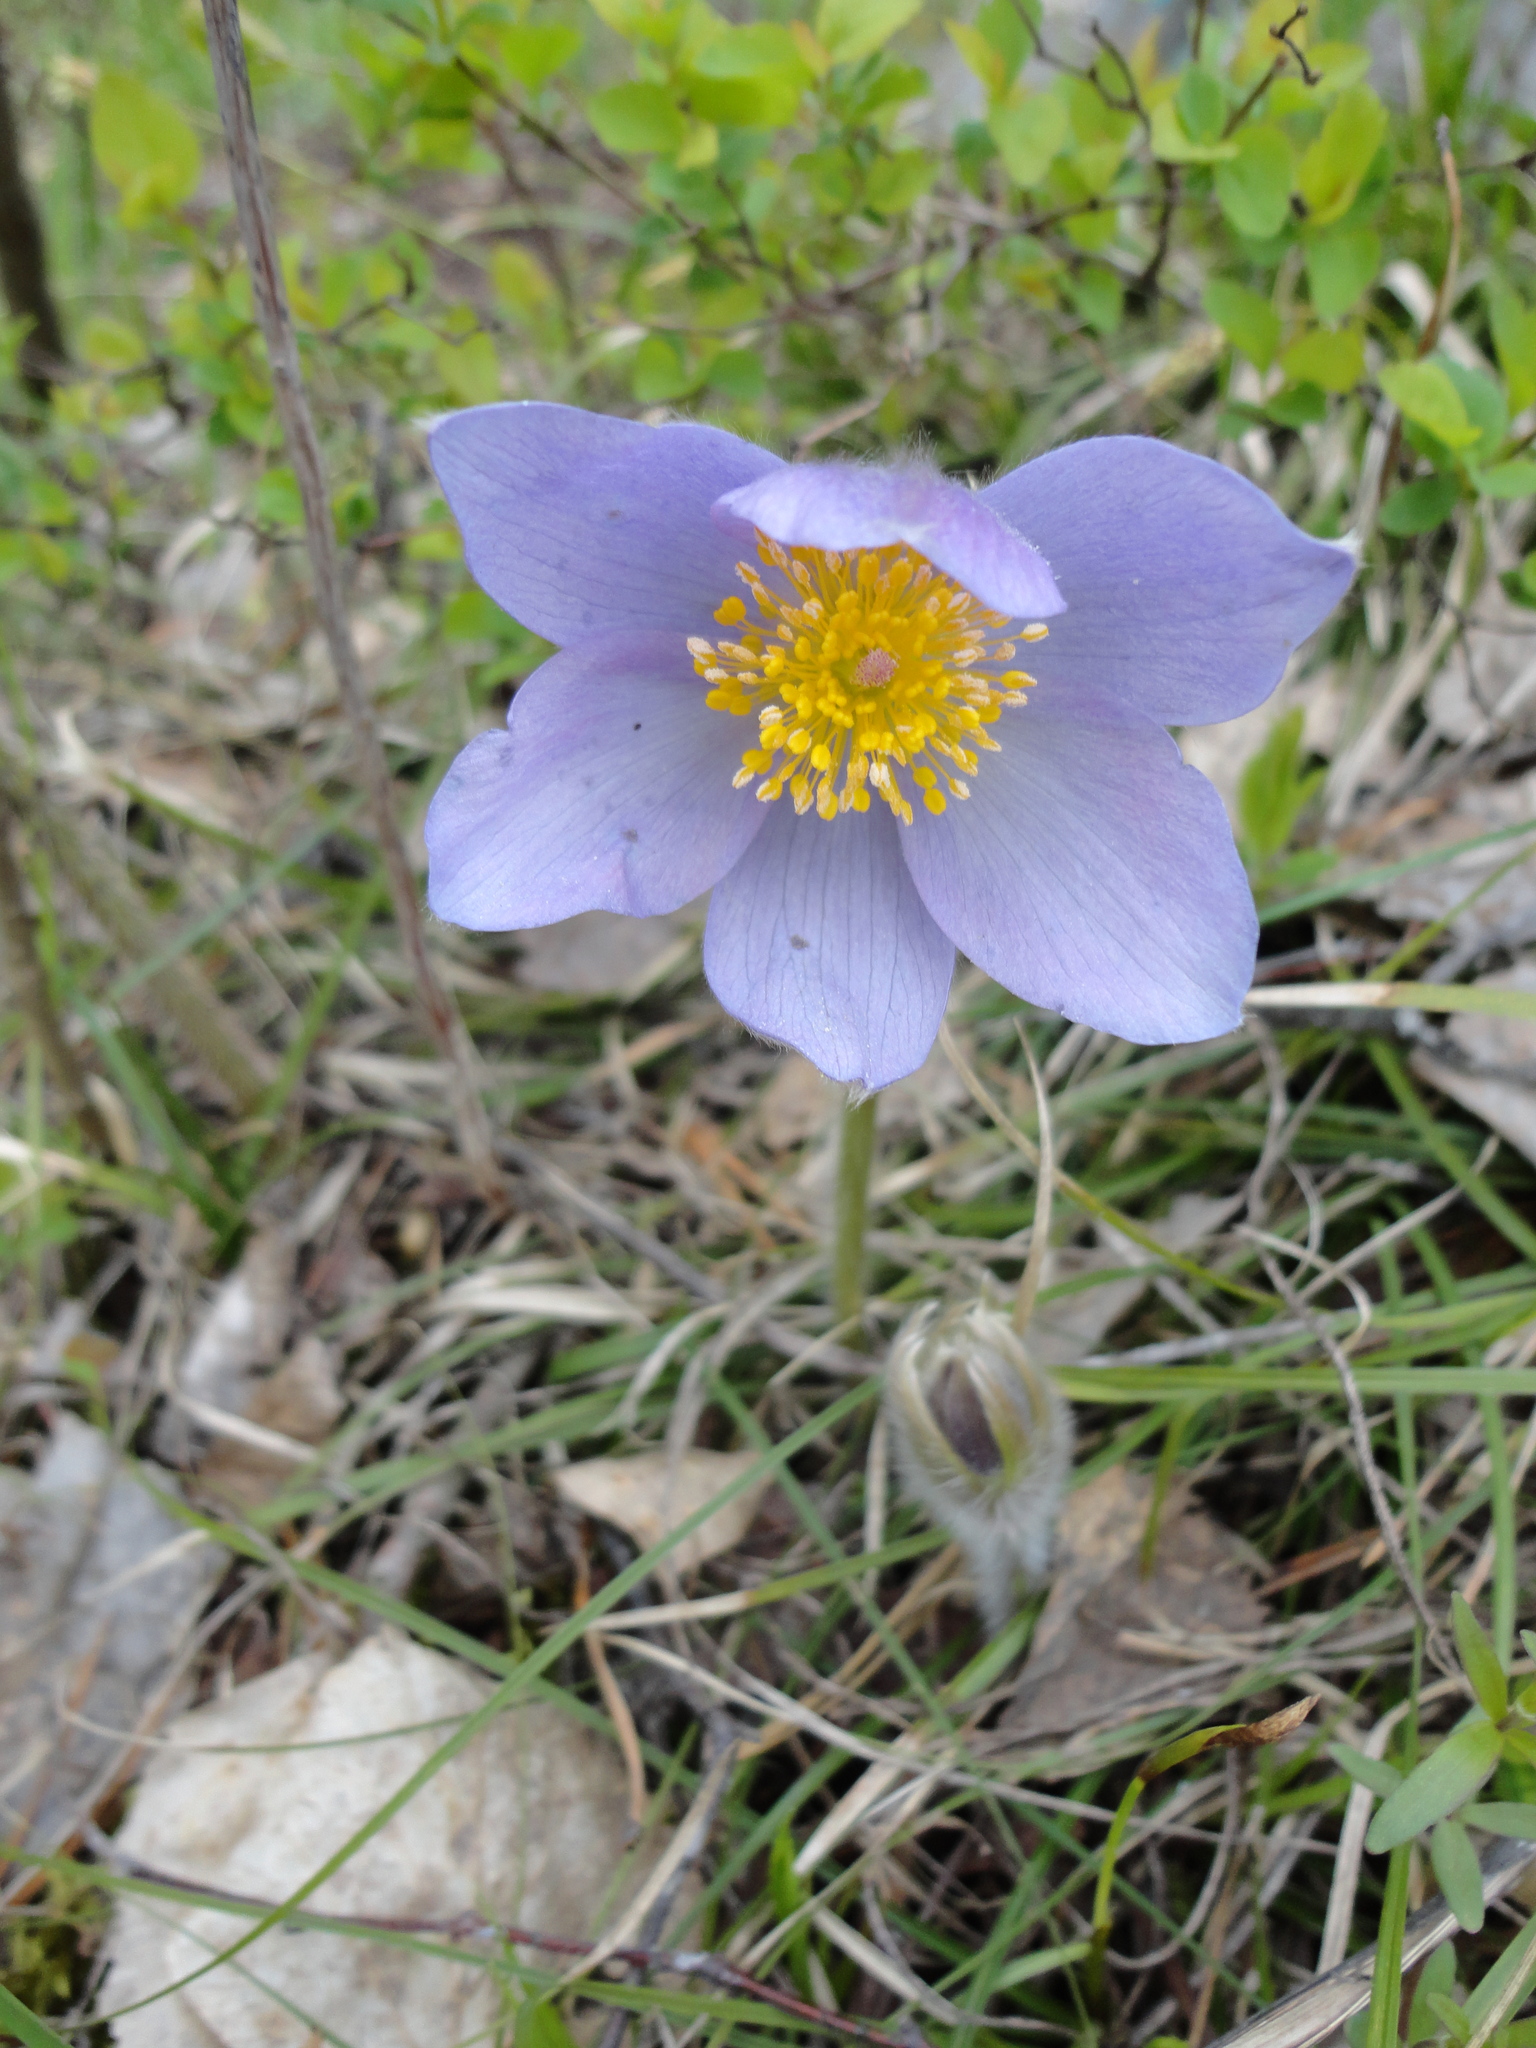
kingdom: Plantae
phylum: Tracheophyta
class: Magnoliopsida
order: Ranunculales
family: Ranunculaceae
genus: Pulsatilla
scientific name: Pulsatilla patens
